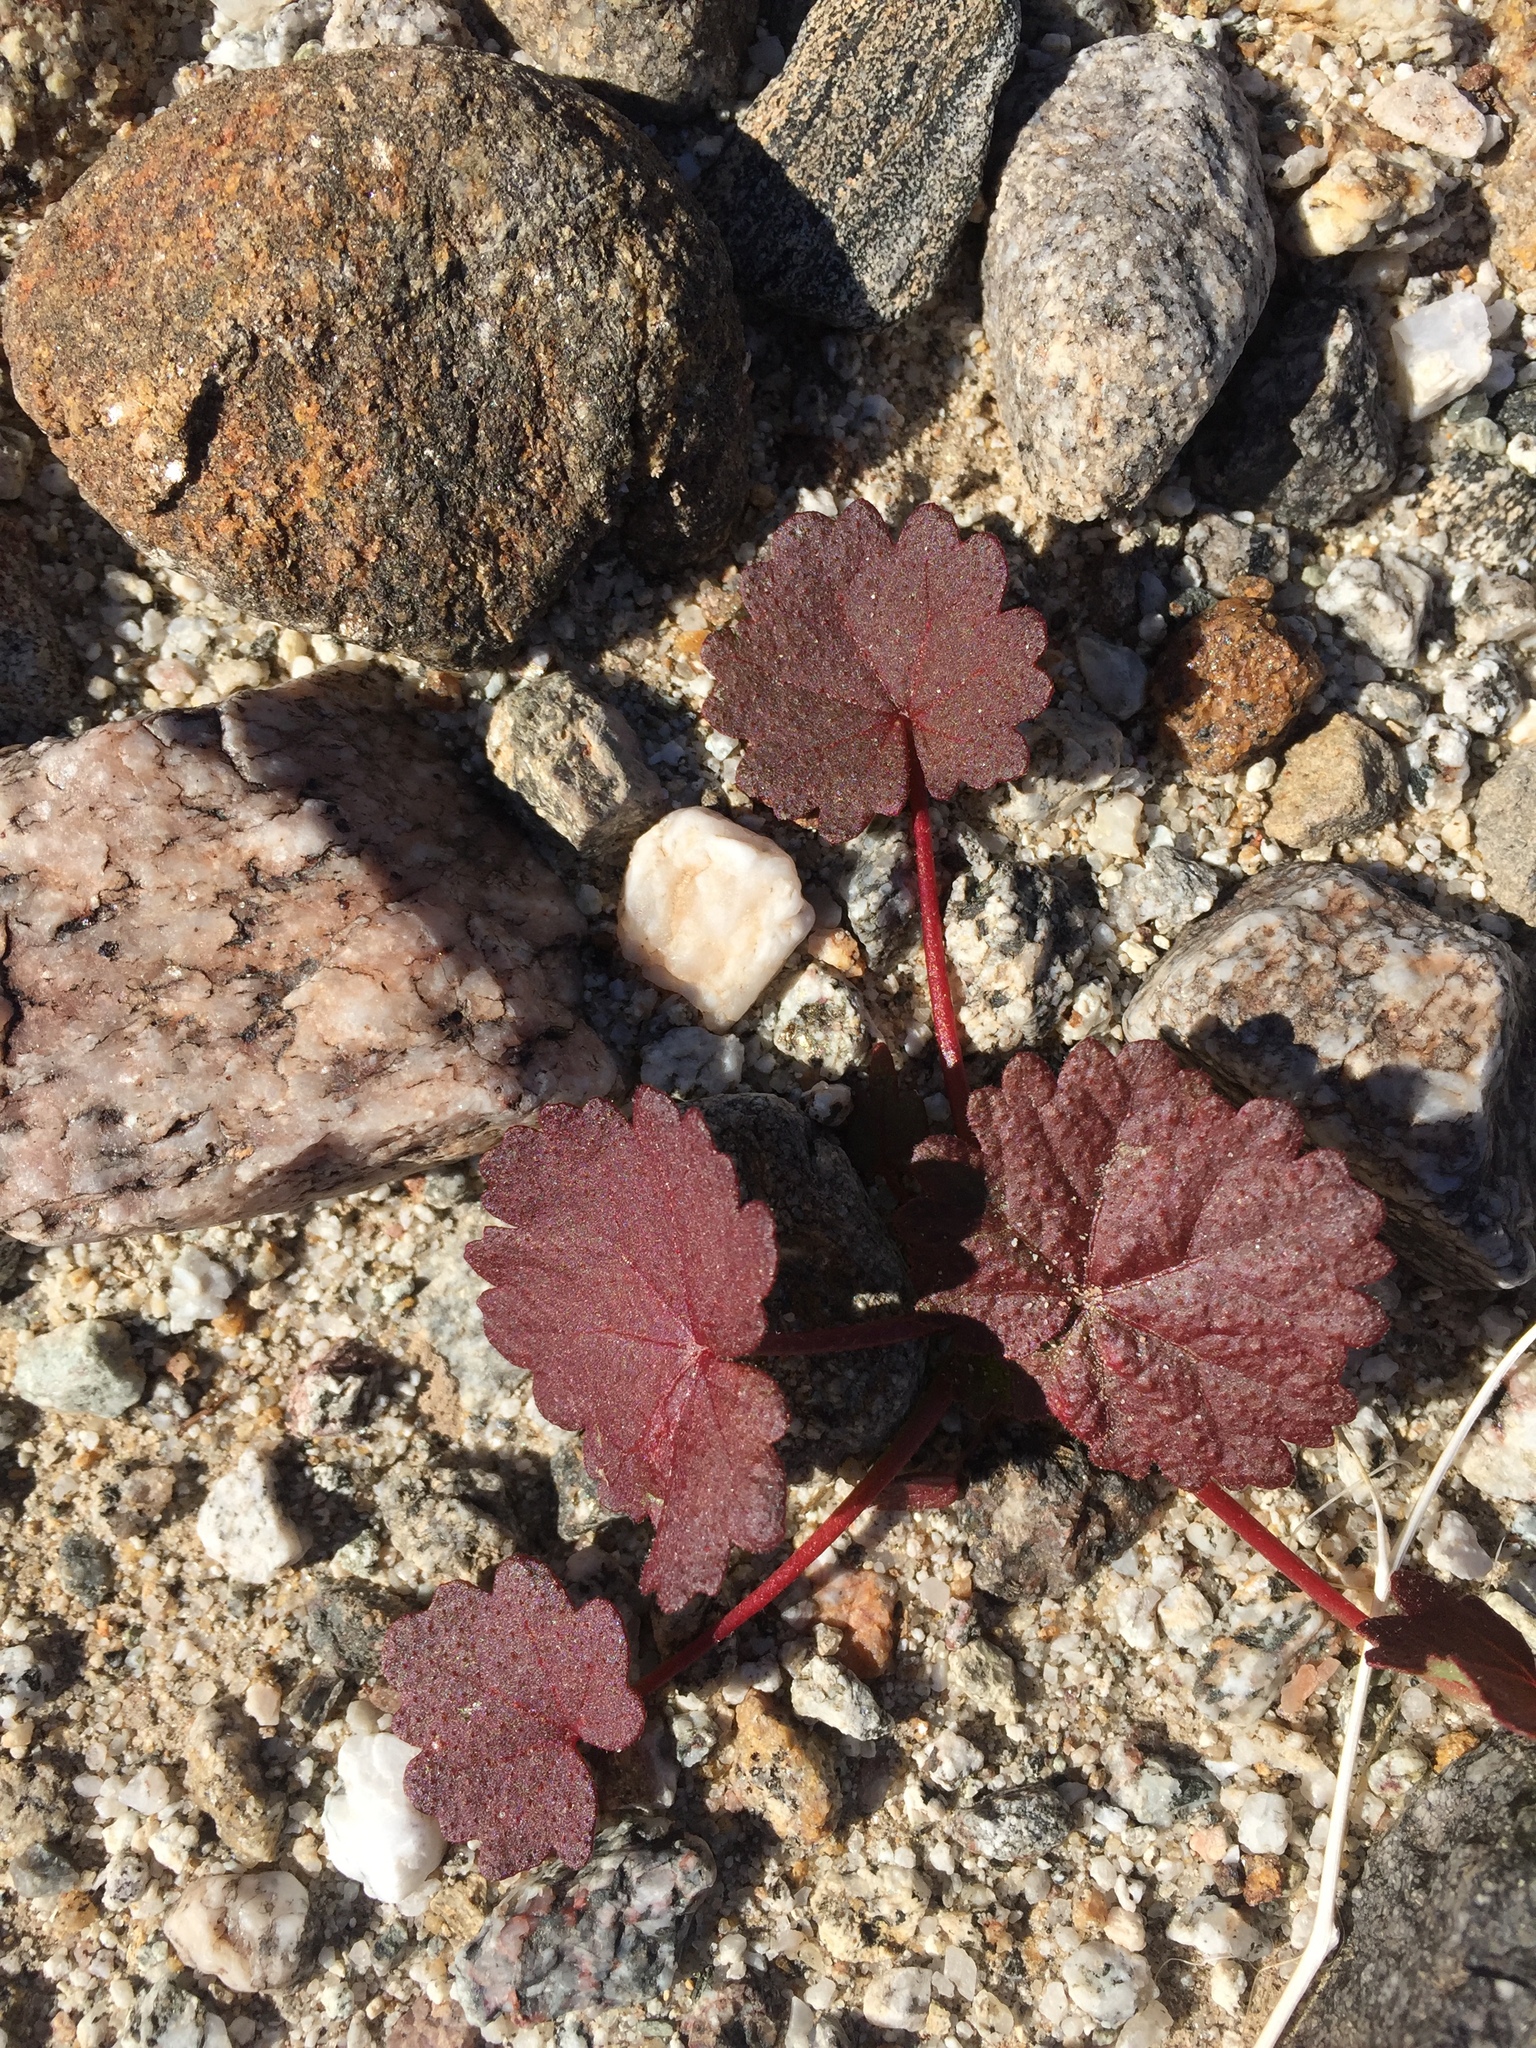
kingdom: Plantae
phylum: Tracheophyta
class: Magnoliopsida
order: Malvales
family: Malvaceae
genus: Eremalche
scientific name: Eremalche rotundifolia
